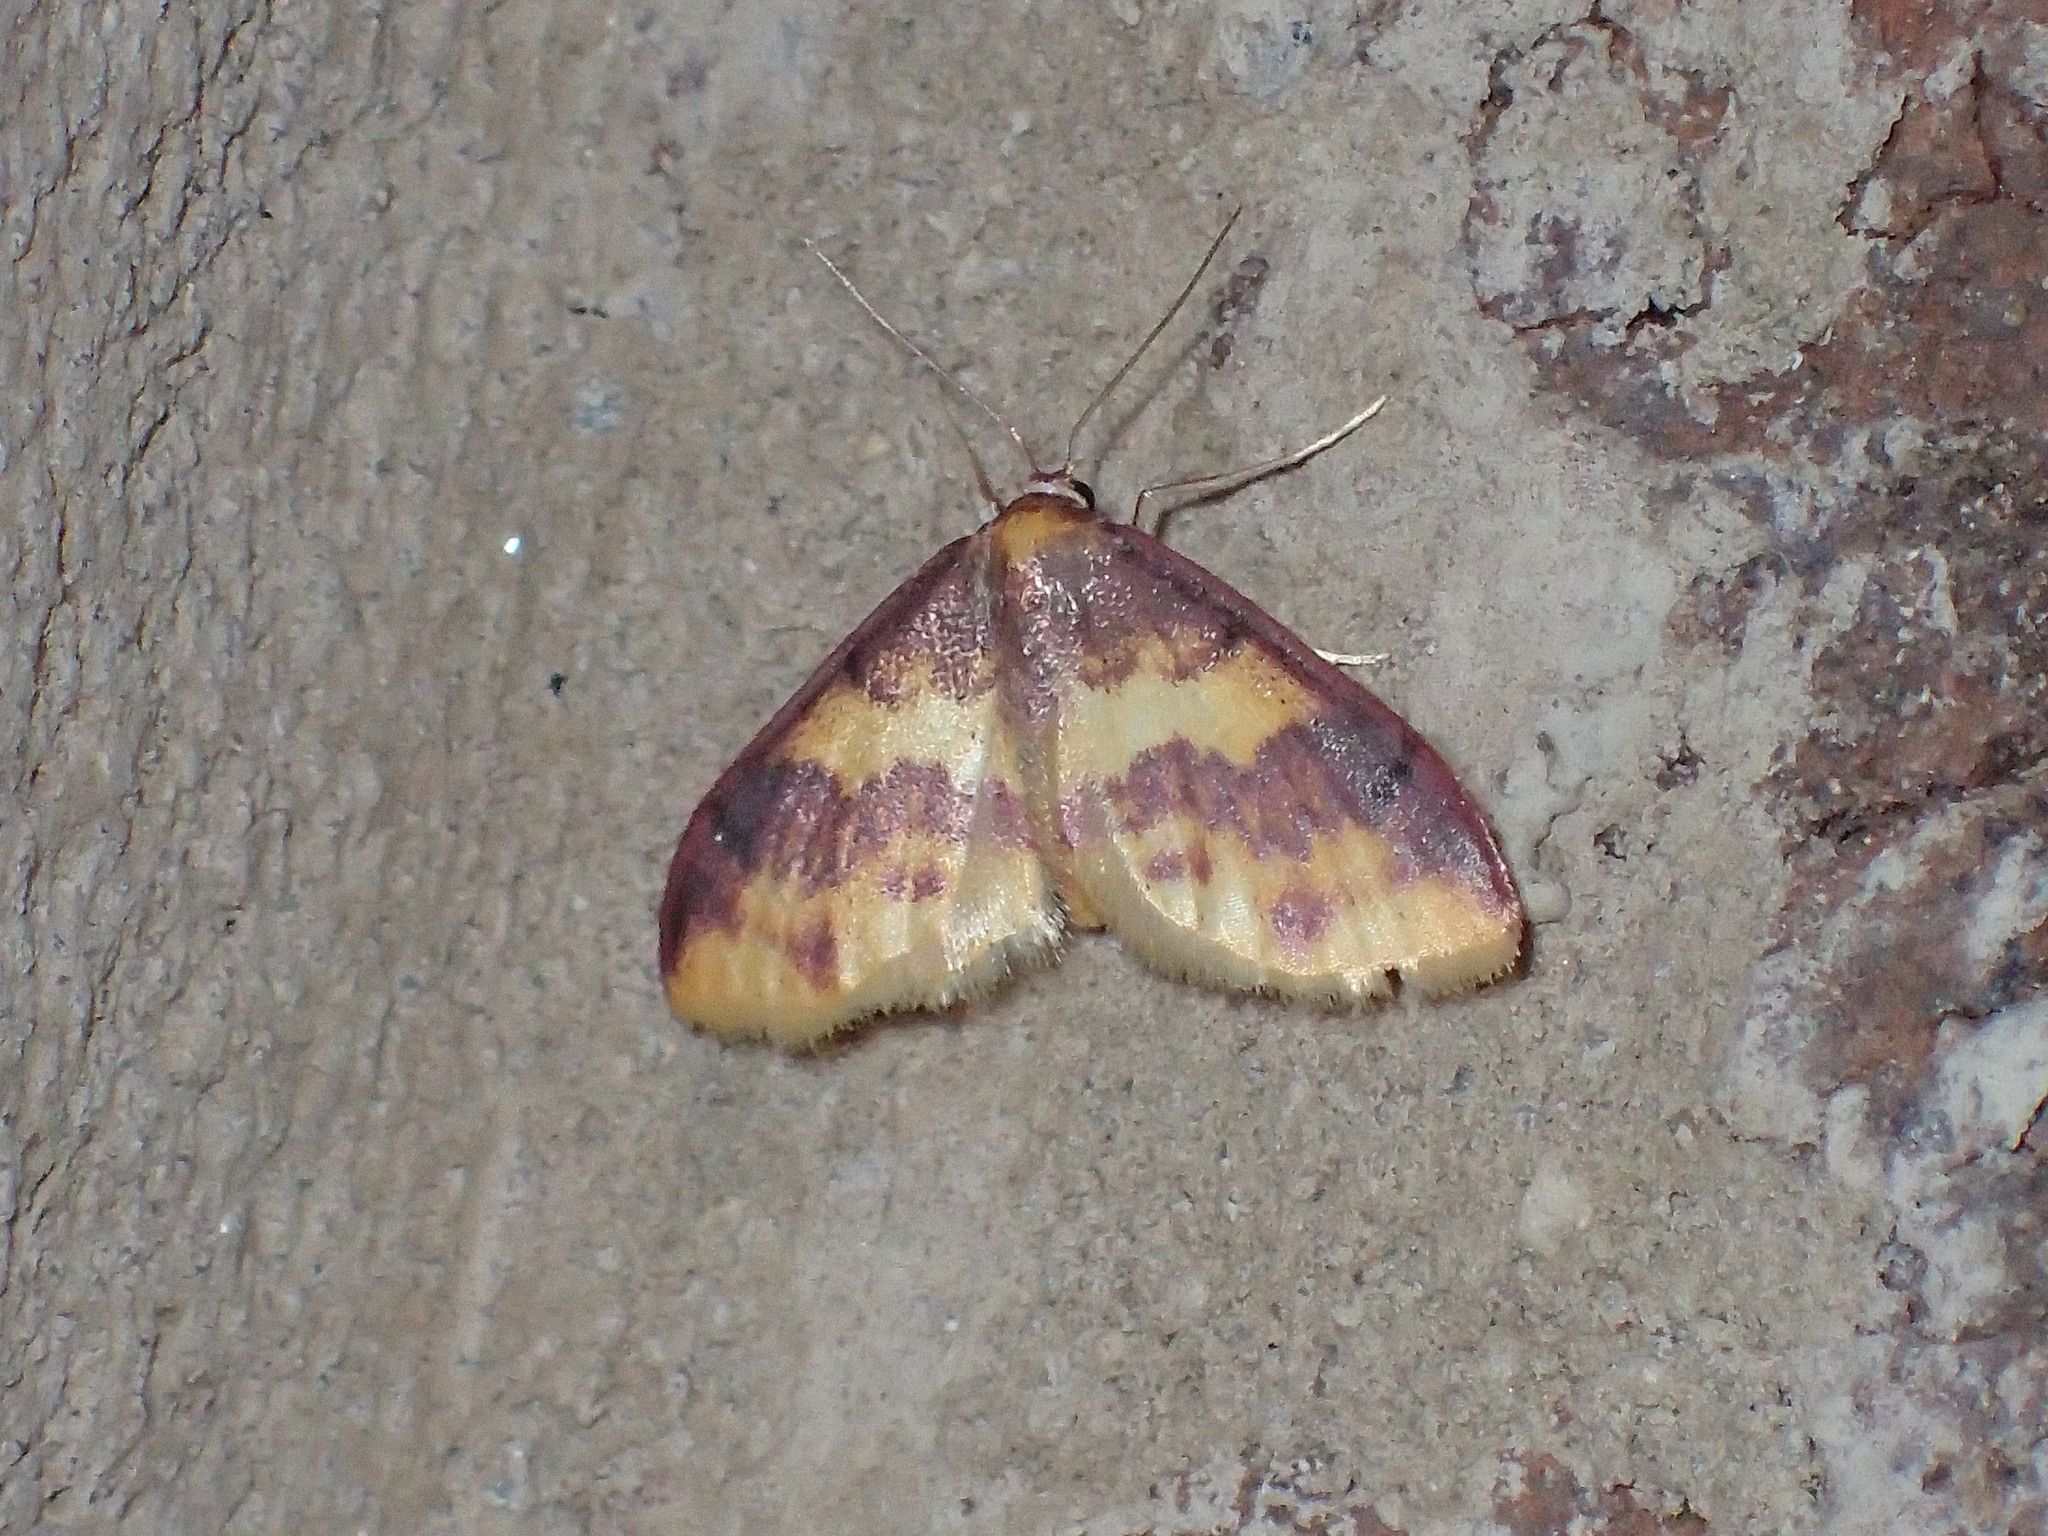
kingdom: Animalia
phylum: Arthropoda
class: Insecta
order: Lepidoptera
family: Geometridae
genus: Lophosis
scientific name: Lophosis labeculata
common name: Stained lophosis moth
